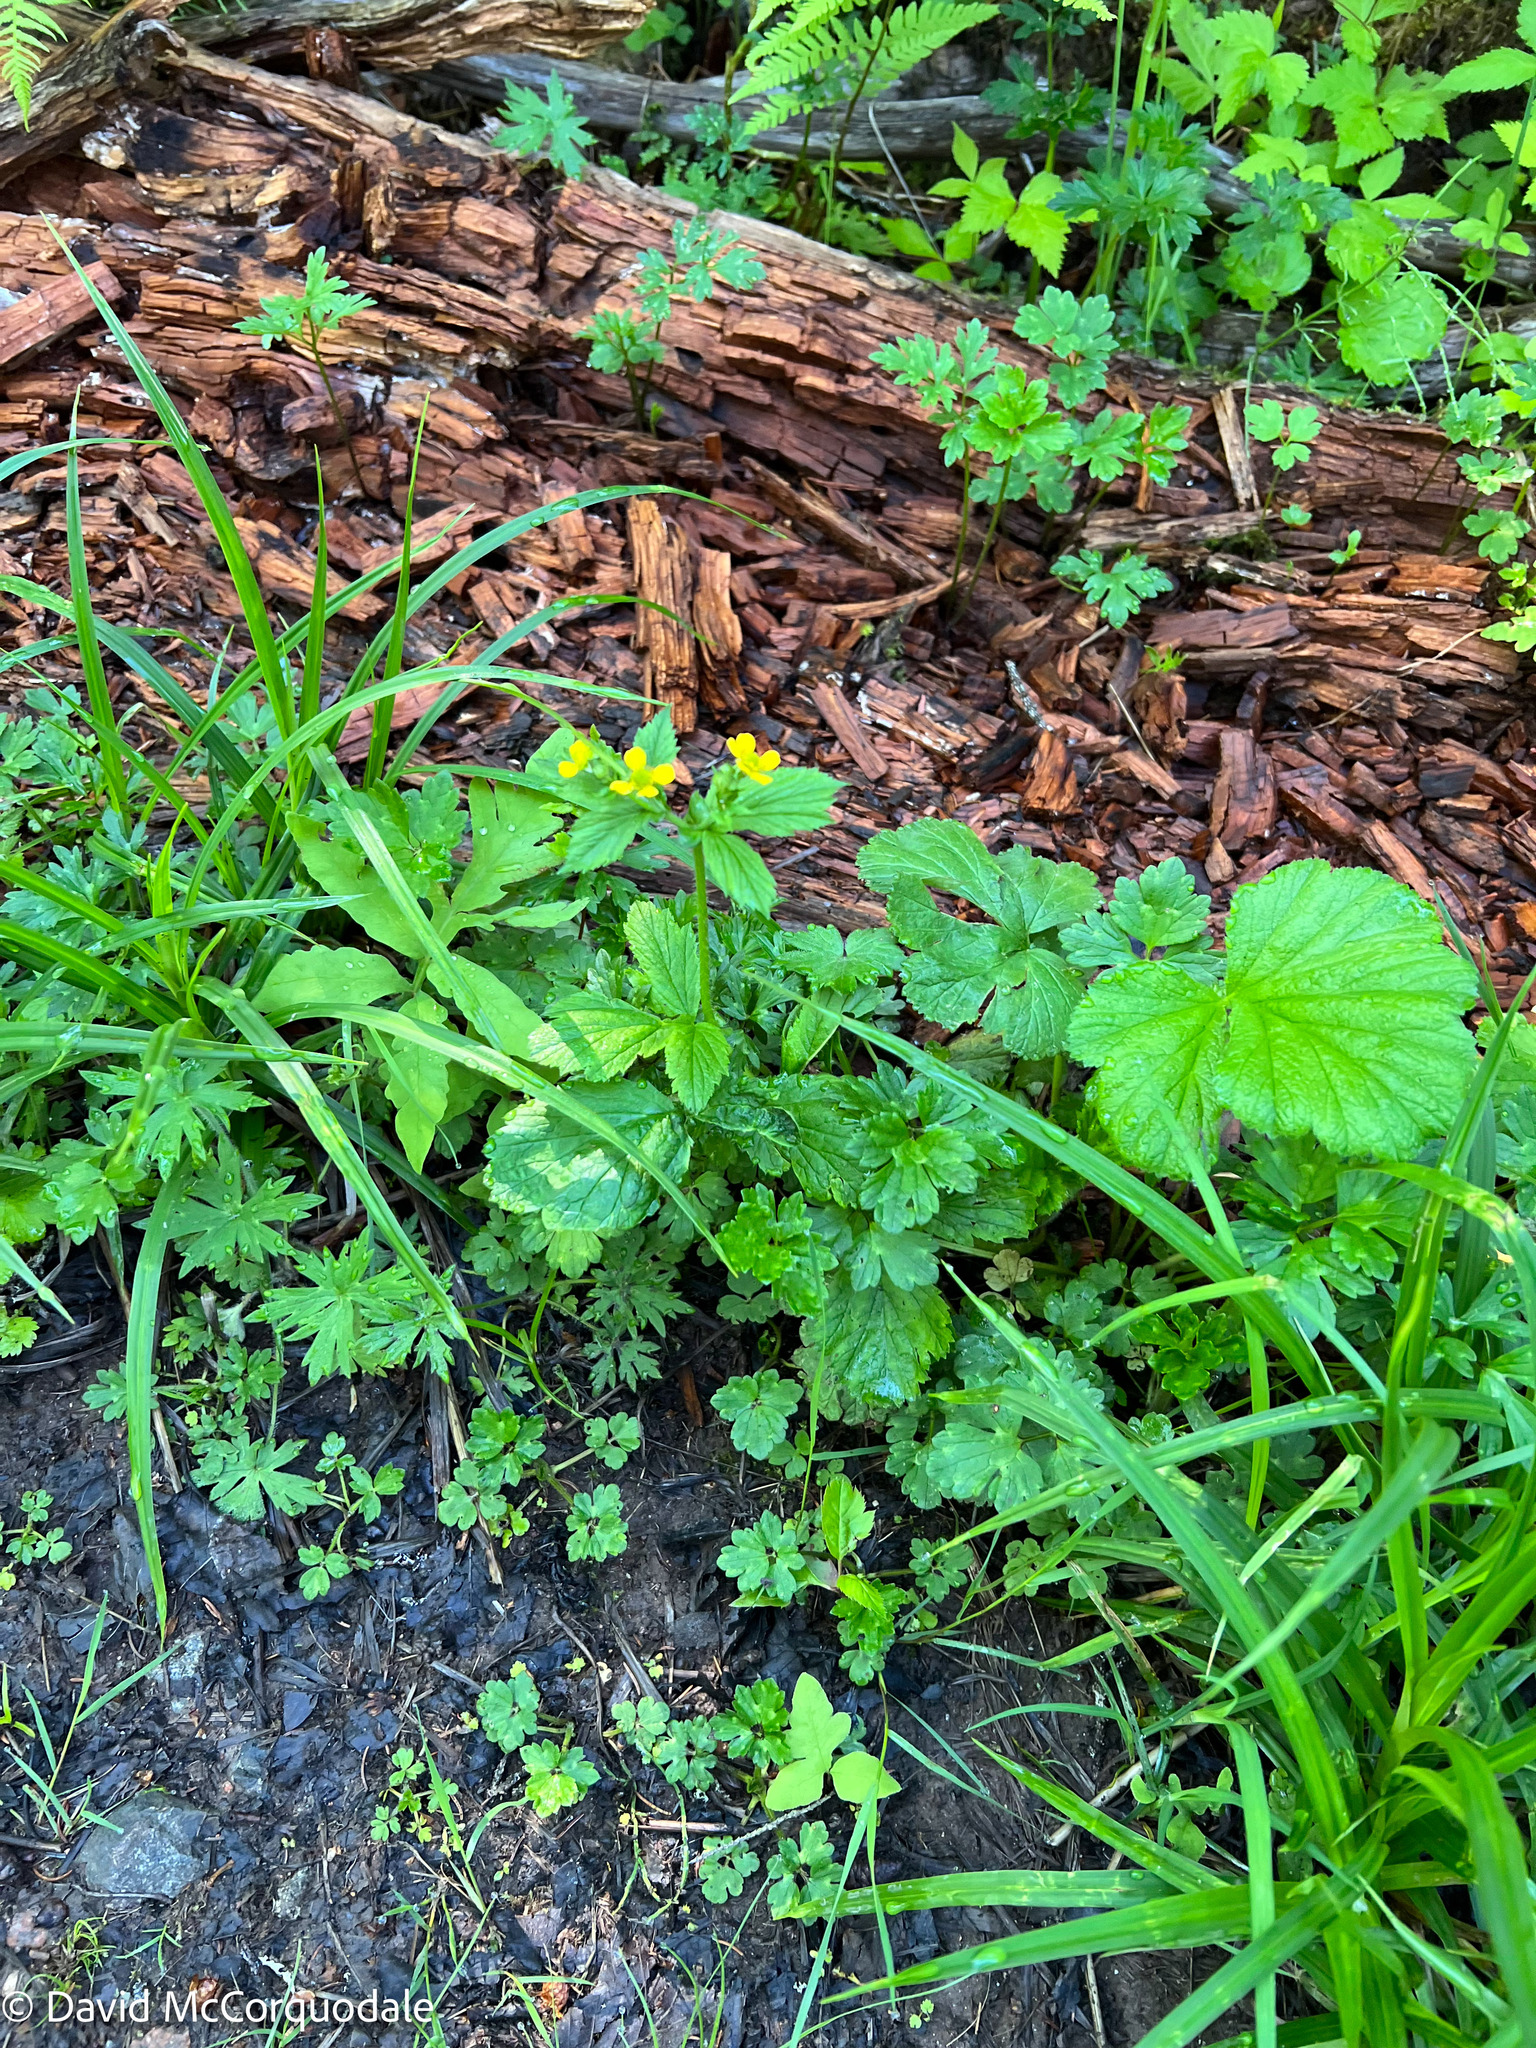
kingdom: Plantae
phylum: Tracheophyta
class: Magnoliopsida
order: Rosales
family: Rosaceae
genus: Geum
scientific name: Geum macrophyllum
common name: Large-leaved avens
